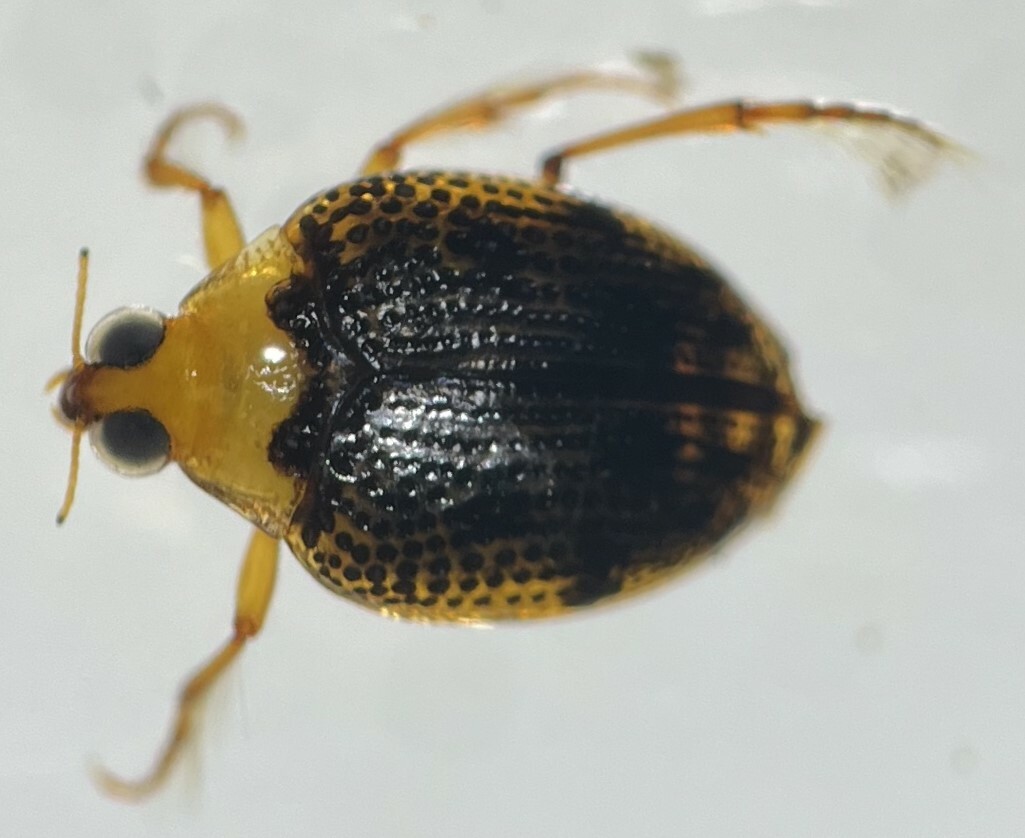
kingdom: Animalia
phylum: Arthropoda
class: Insecta
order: Coleoptera
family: Haliplidae
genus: Peltodytes
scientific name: Peltodytes dietrichi
